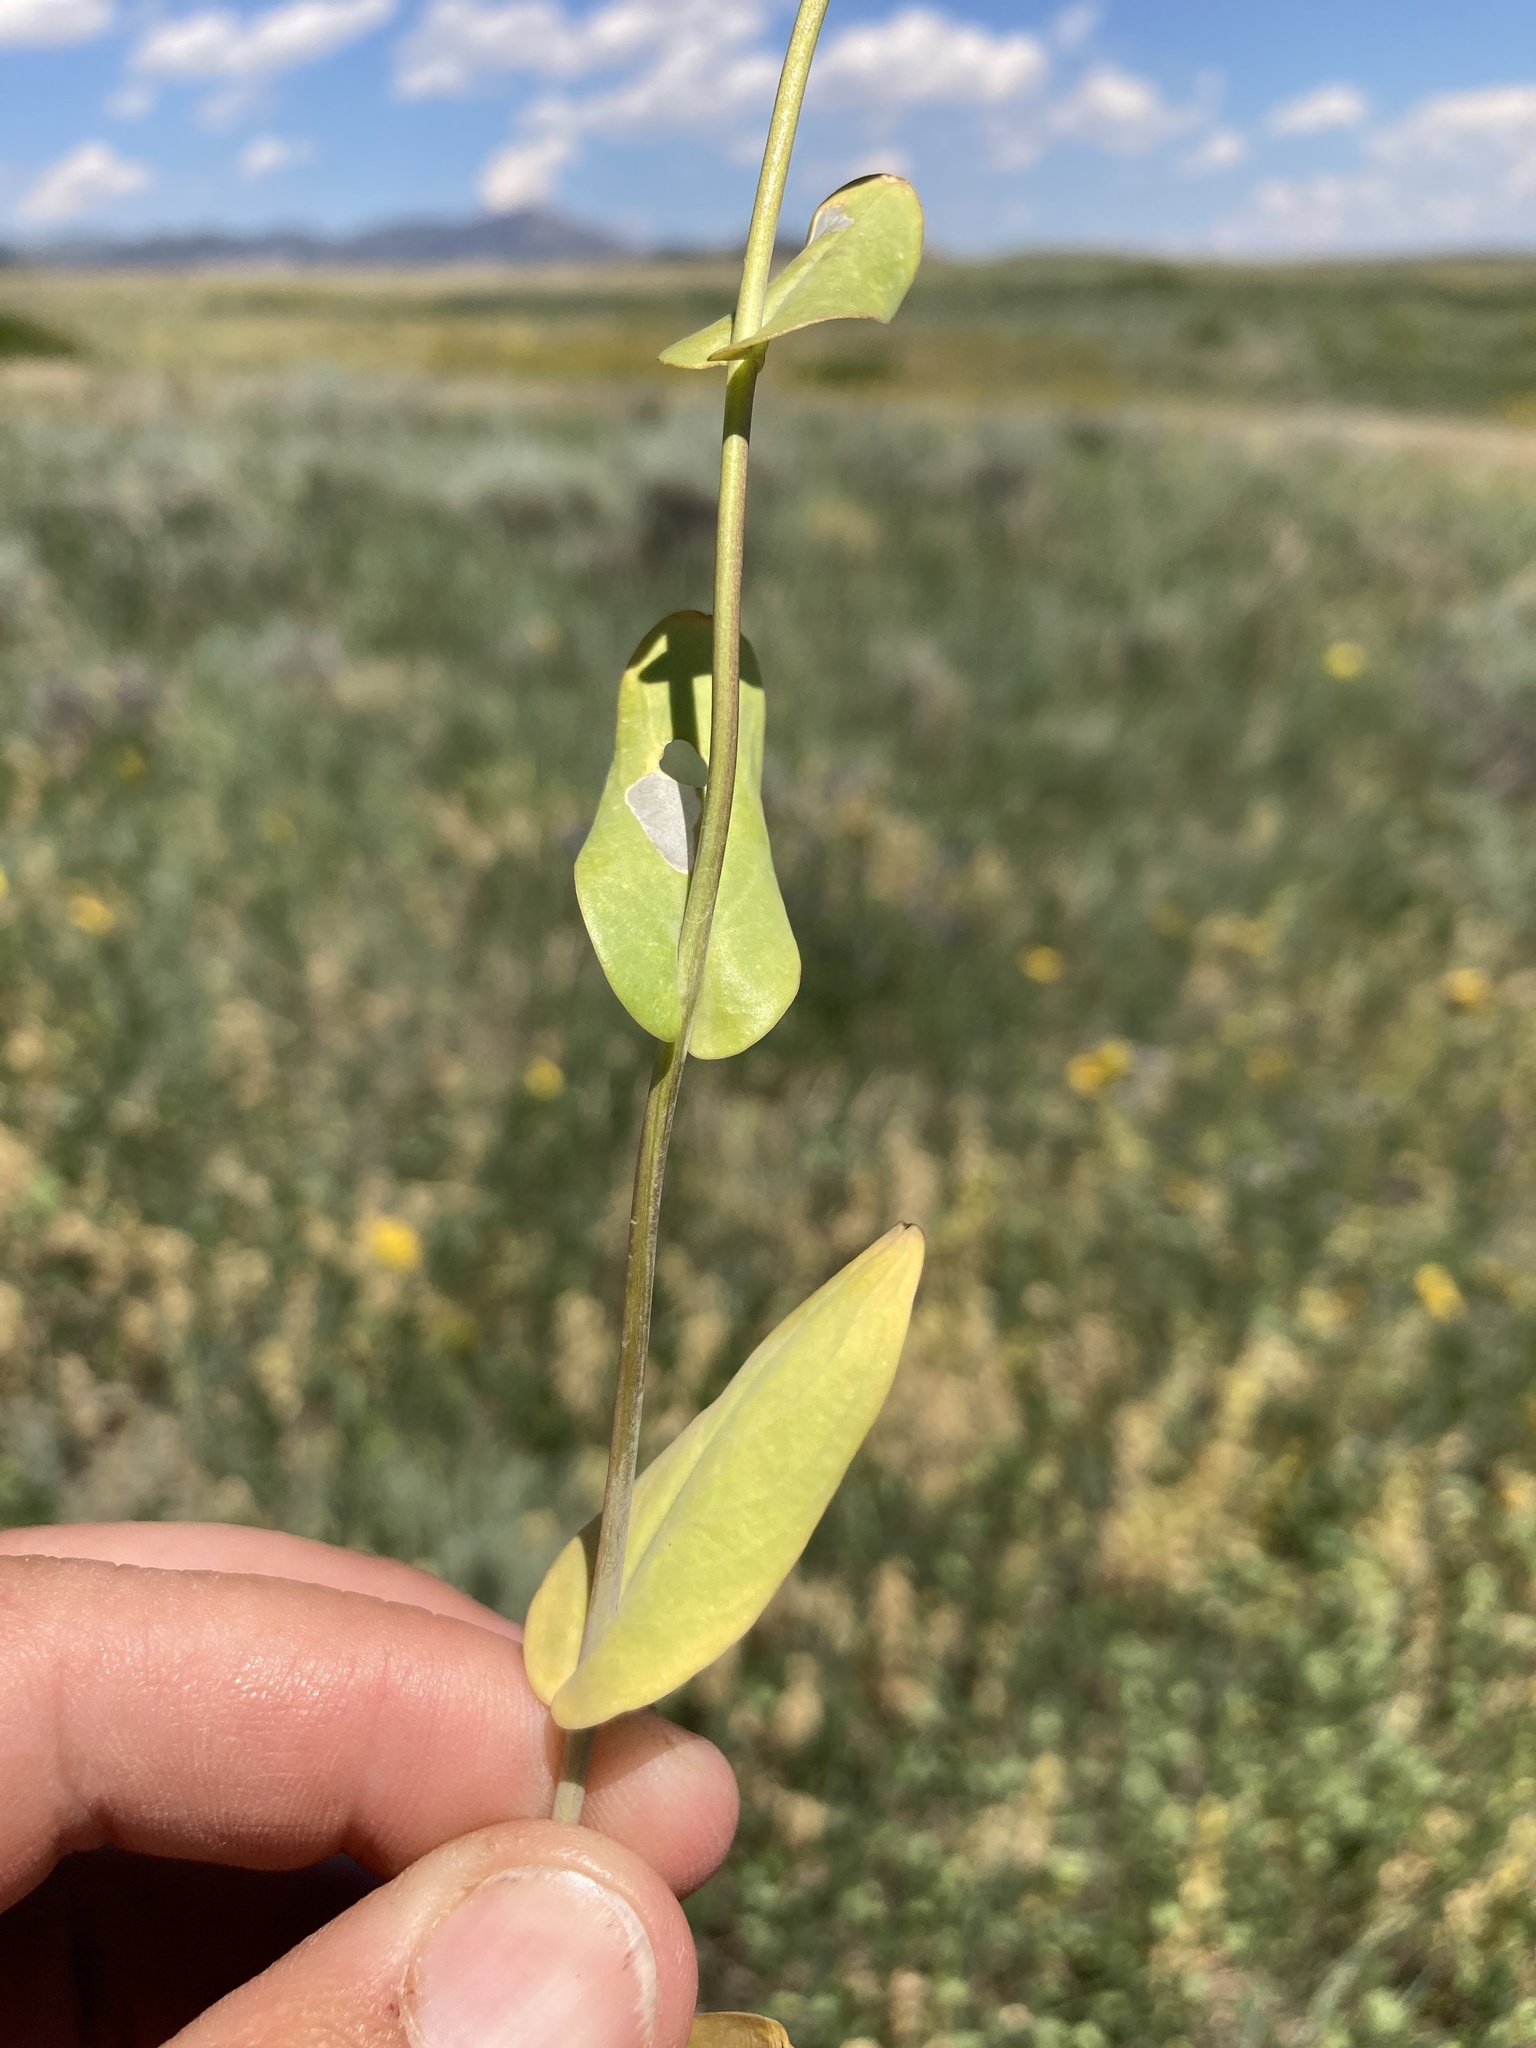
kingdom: Plantae
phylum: Tracheophyta
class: Magnoliopsida
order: Brassicales
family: Brassicaceae
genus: Conringia
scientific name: Conringia orientalis
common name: Hare's ear mustard
